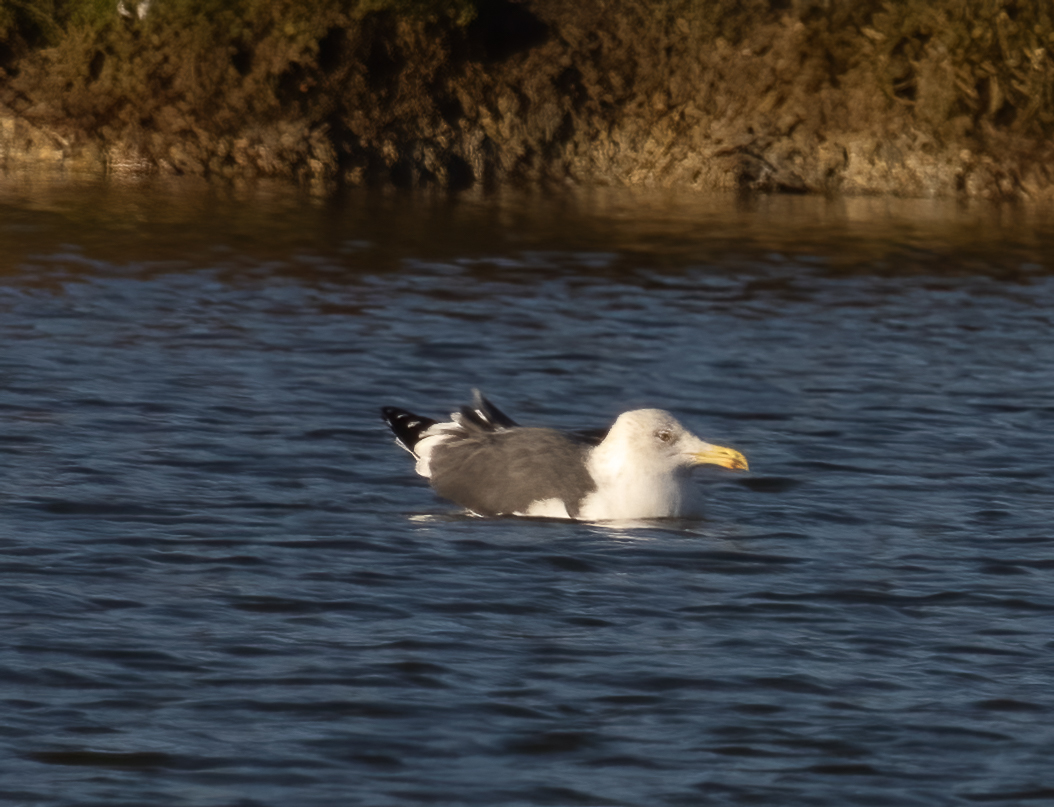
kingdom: Animalia
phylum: Chordata
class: Aves
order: Charadriiformes
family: Laridae
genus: Larus
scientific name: Larus fuscus
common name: Lesser black-backed gull
